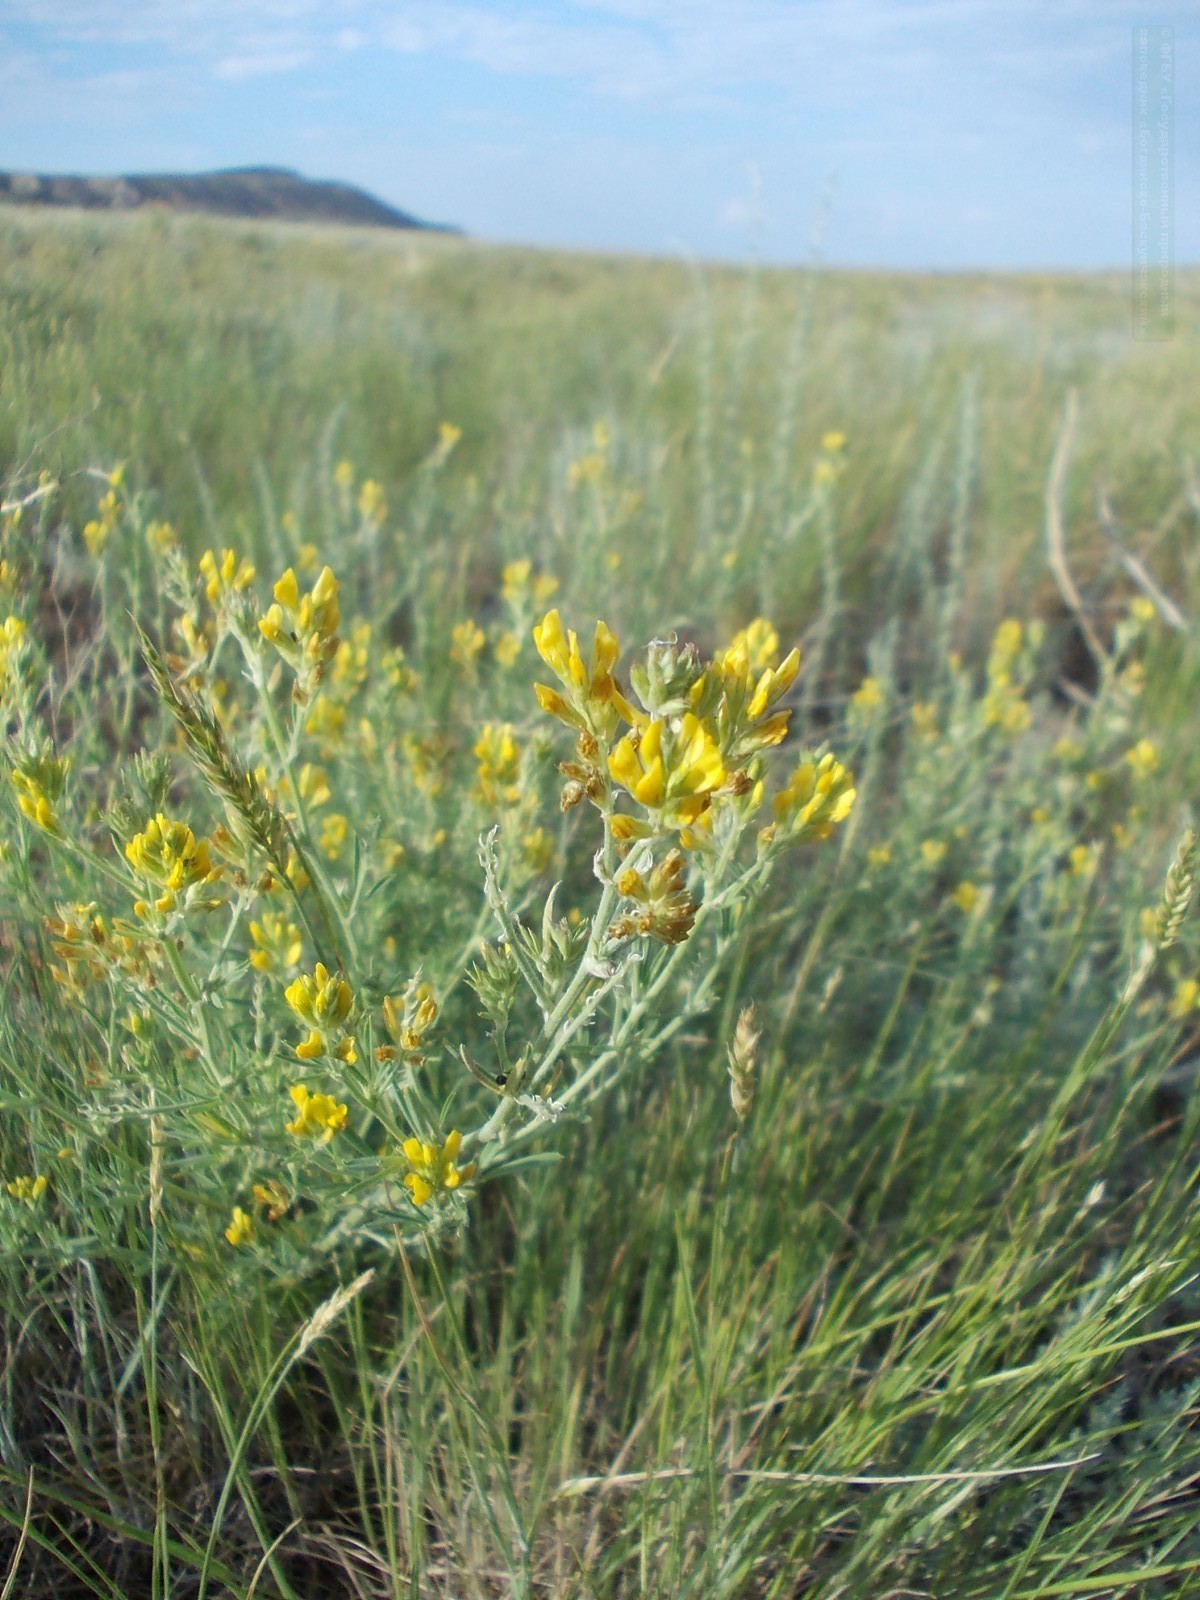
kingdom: Plantae
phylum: Tracheophyta
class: Magnoliopsida
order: Fabales
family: Fabaceae
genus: Medicago
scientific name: Medicago falcata
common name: Sickle medick
